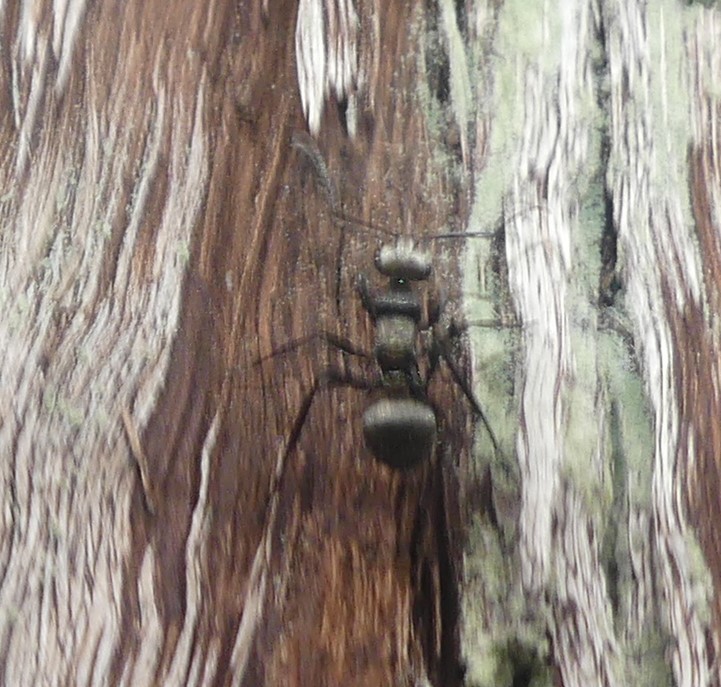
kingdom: Animalia
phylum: Arthropoda
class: Insecta
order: Hymenoptera
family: Formicidae
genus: Polyrhachis
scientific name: Polyrhachis daemeli
